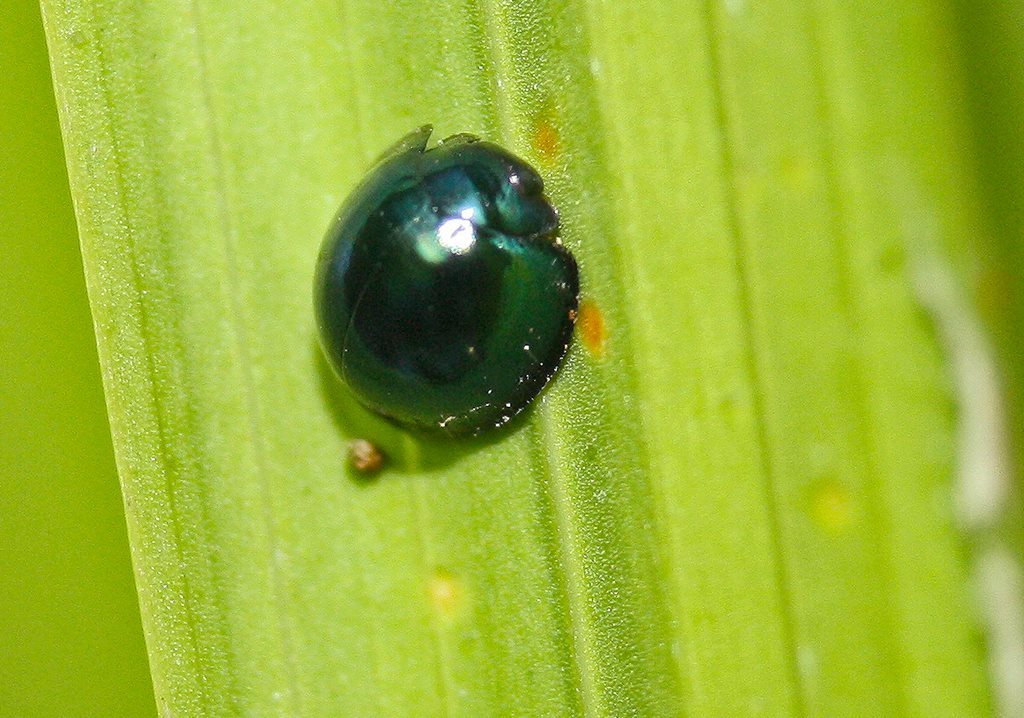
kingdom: Animalia
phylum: Arthropoda
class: Insecta
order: Coleoptera
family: Coccinellidae
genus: Halmus
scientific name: Halmus chalybeus
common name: Steel blue ladybird beetle
